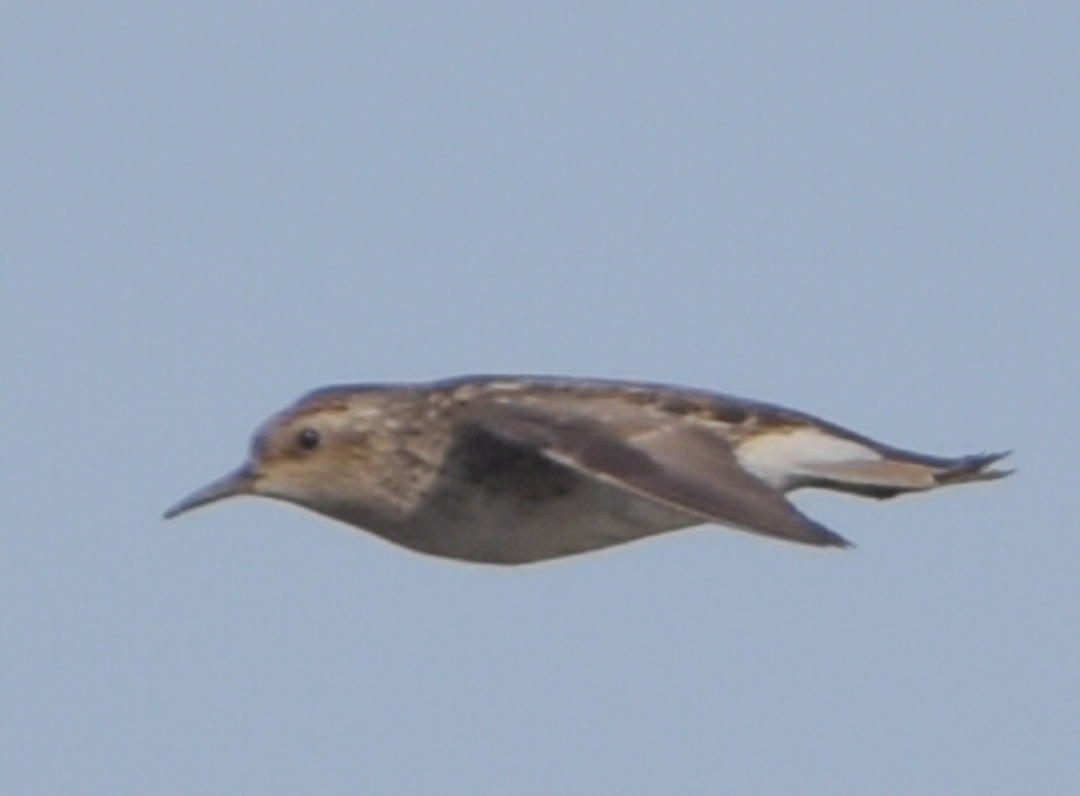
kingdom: Animalia
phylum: Chordata
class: Aves
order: Charadriiformes
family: Scolopacidae
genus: Calidris
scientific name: Calidris subminuta
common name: Long-toed stint
